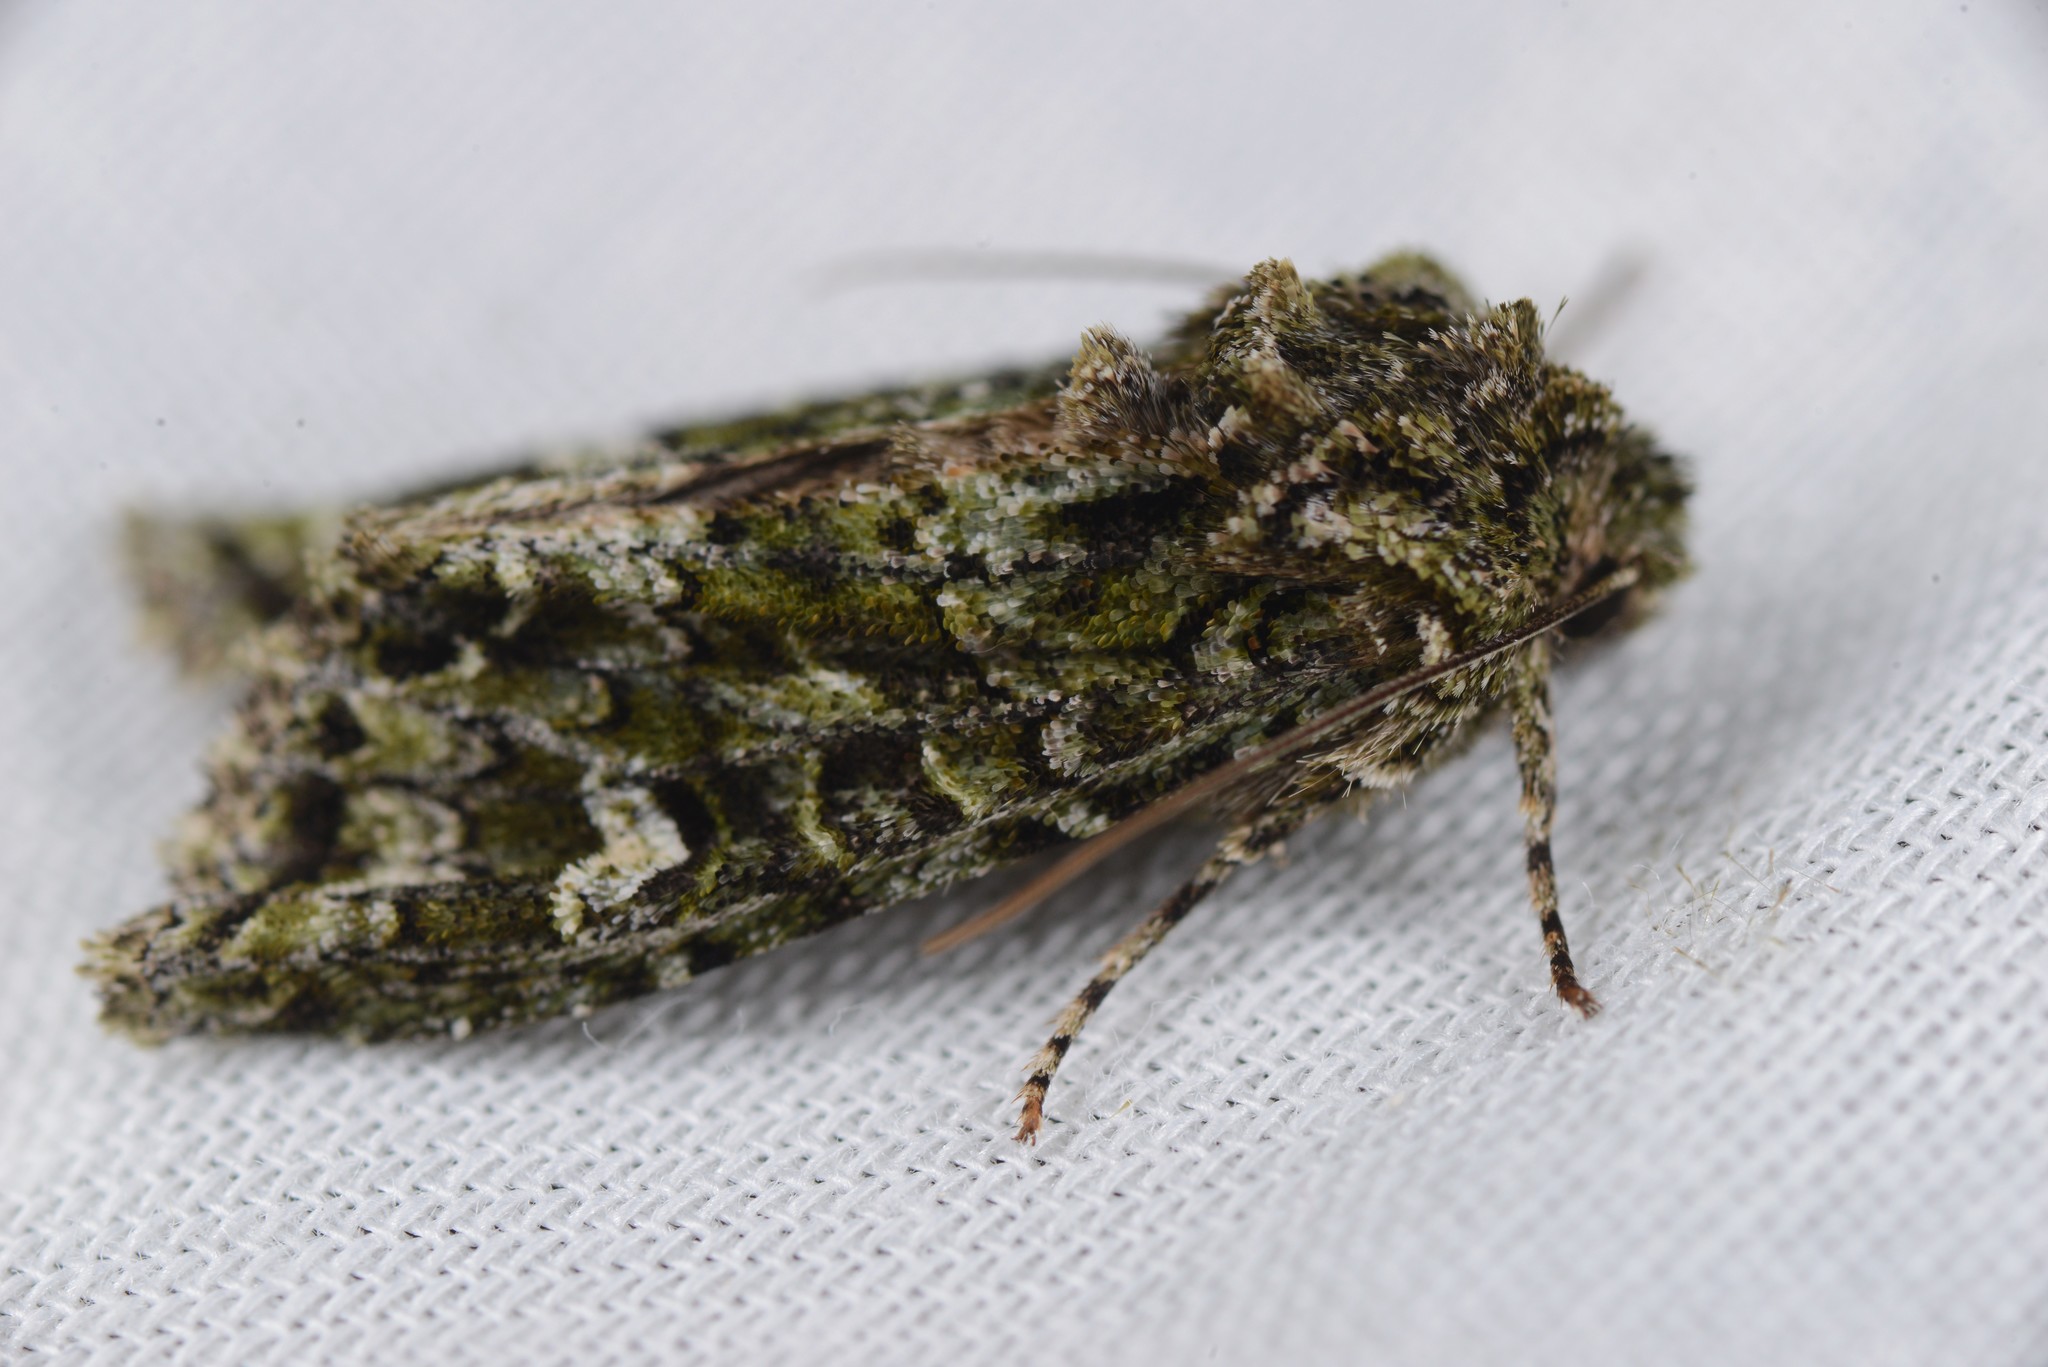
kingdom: Animalia
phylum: Arthropoda
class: Insecta
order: Lepidoptera
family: Noctuidae
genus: Ichneutica
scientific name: Ichneutica
